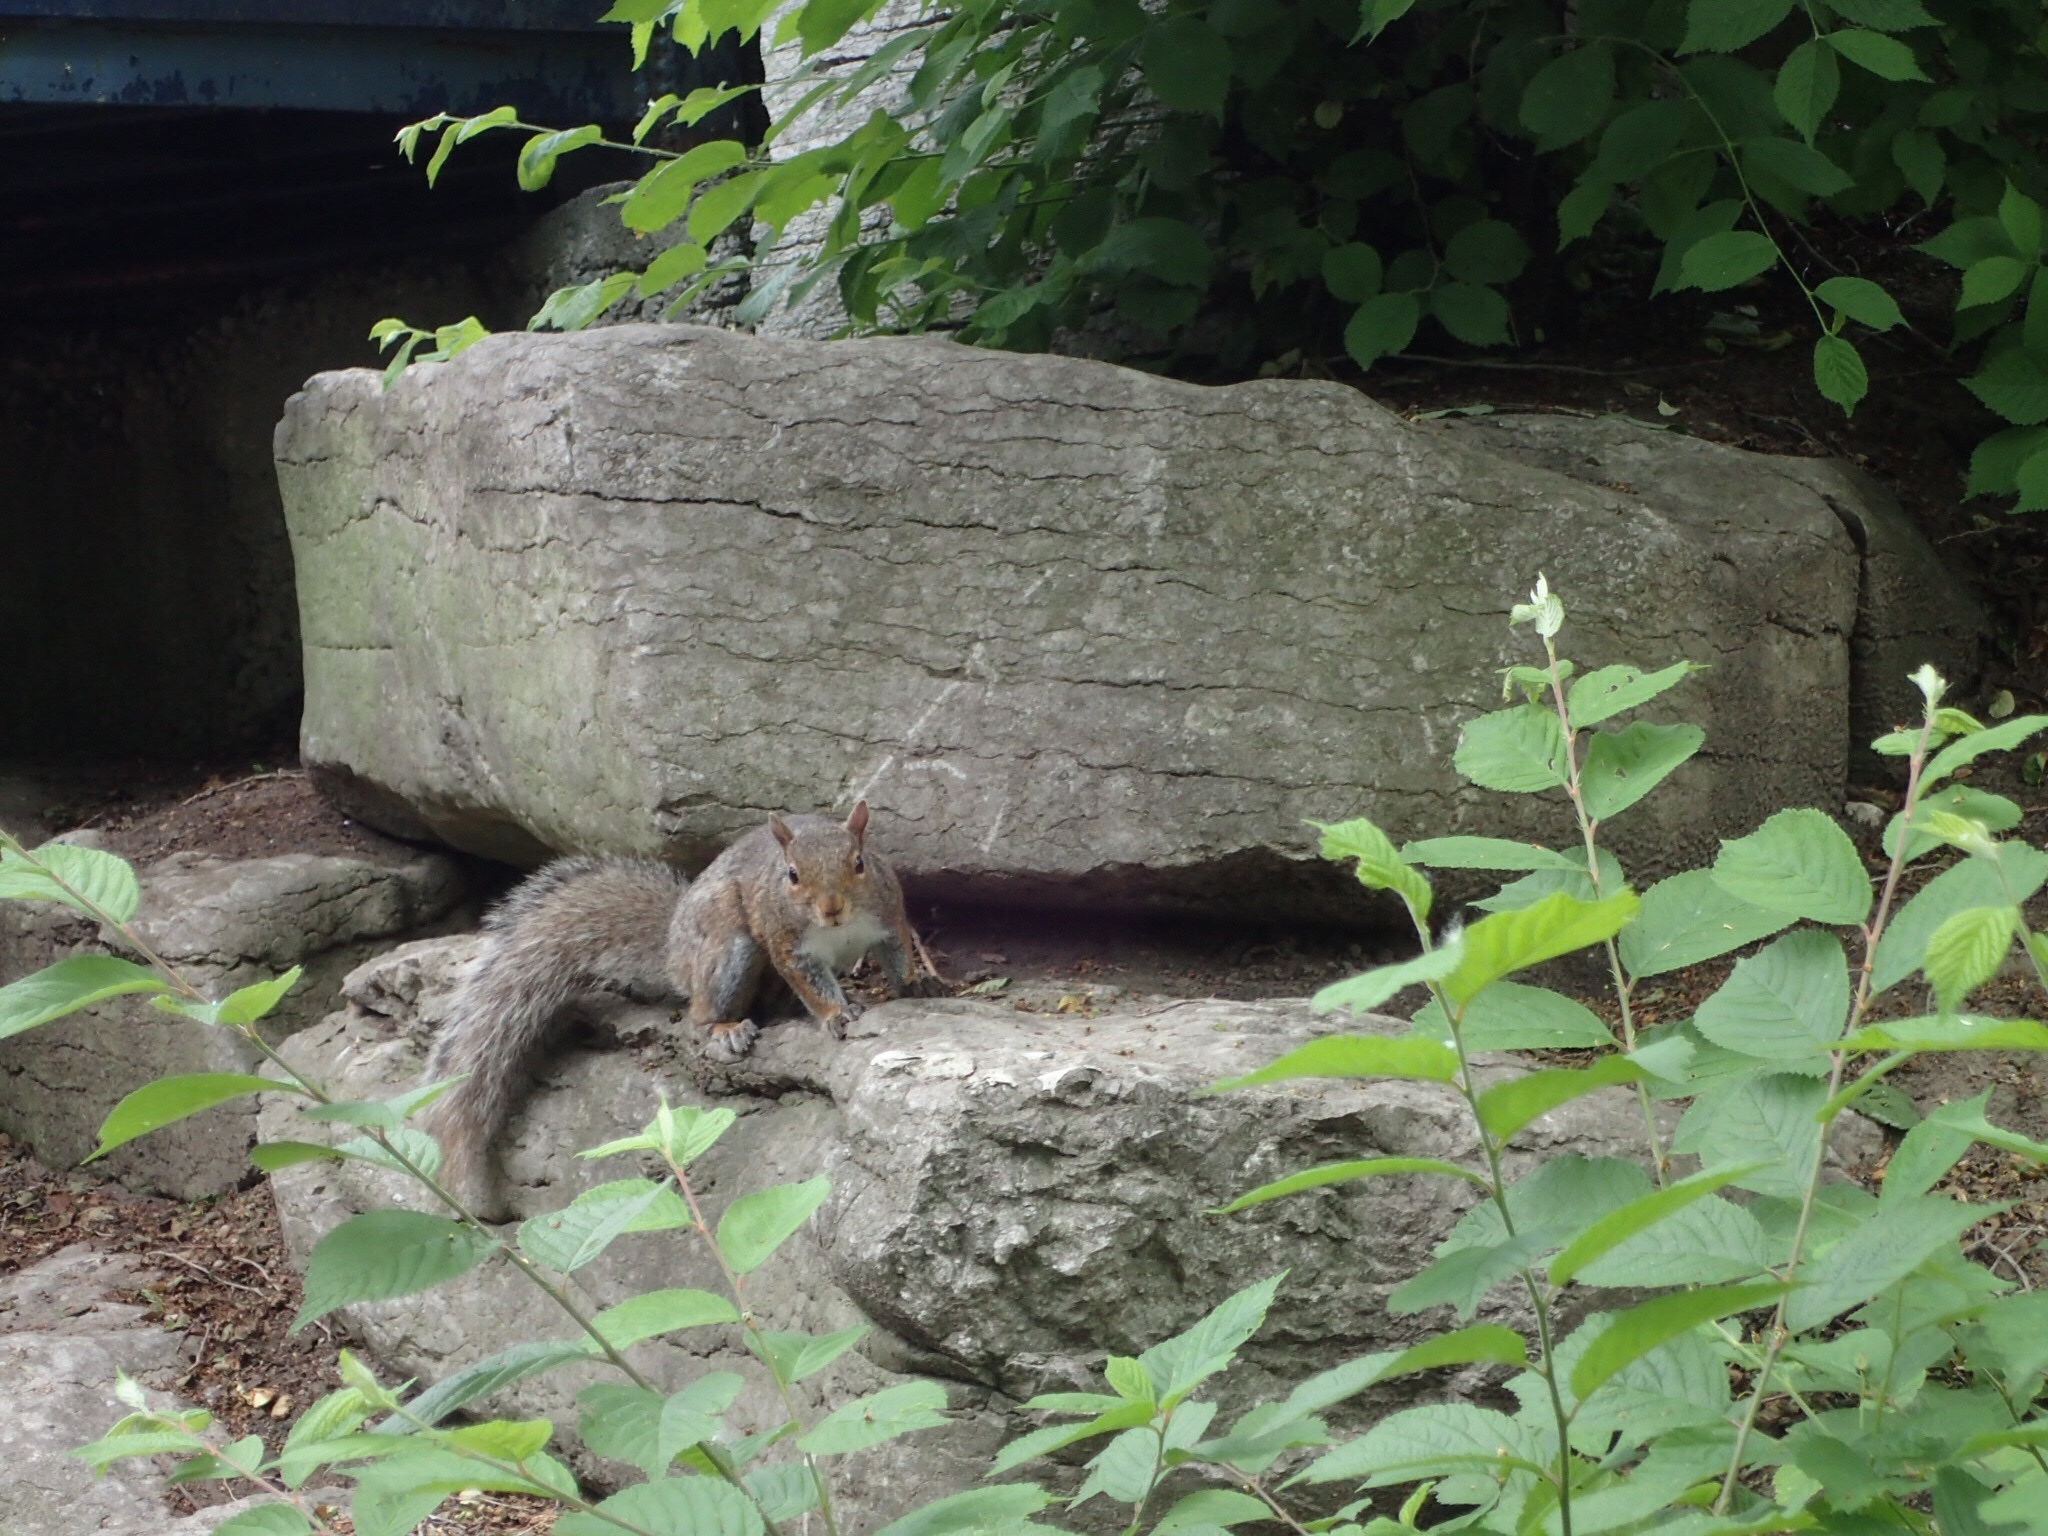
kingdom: Animalia
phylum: Chordata
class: Mammalia
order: Rodentia
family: Sciuridae
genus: Sciurus
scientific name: Sciurus carolinensis
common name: Eastern gray squirrel
